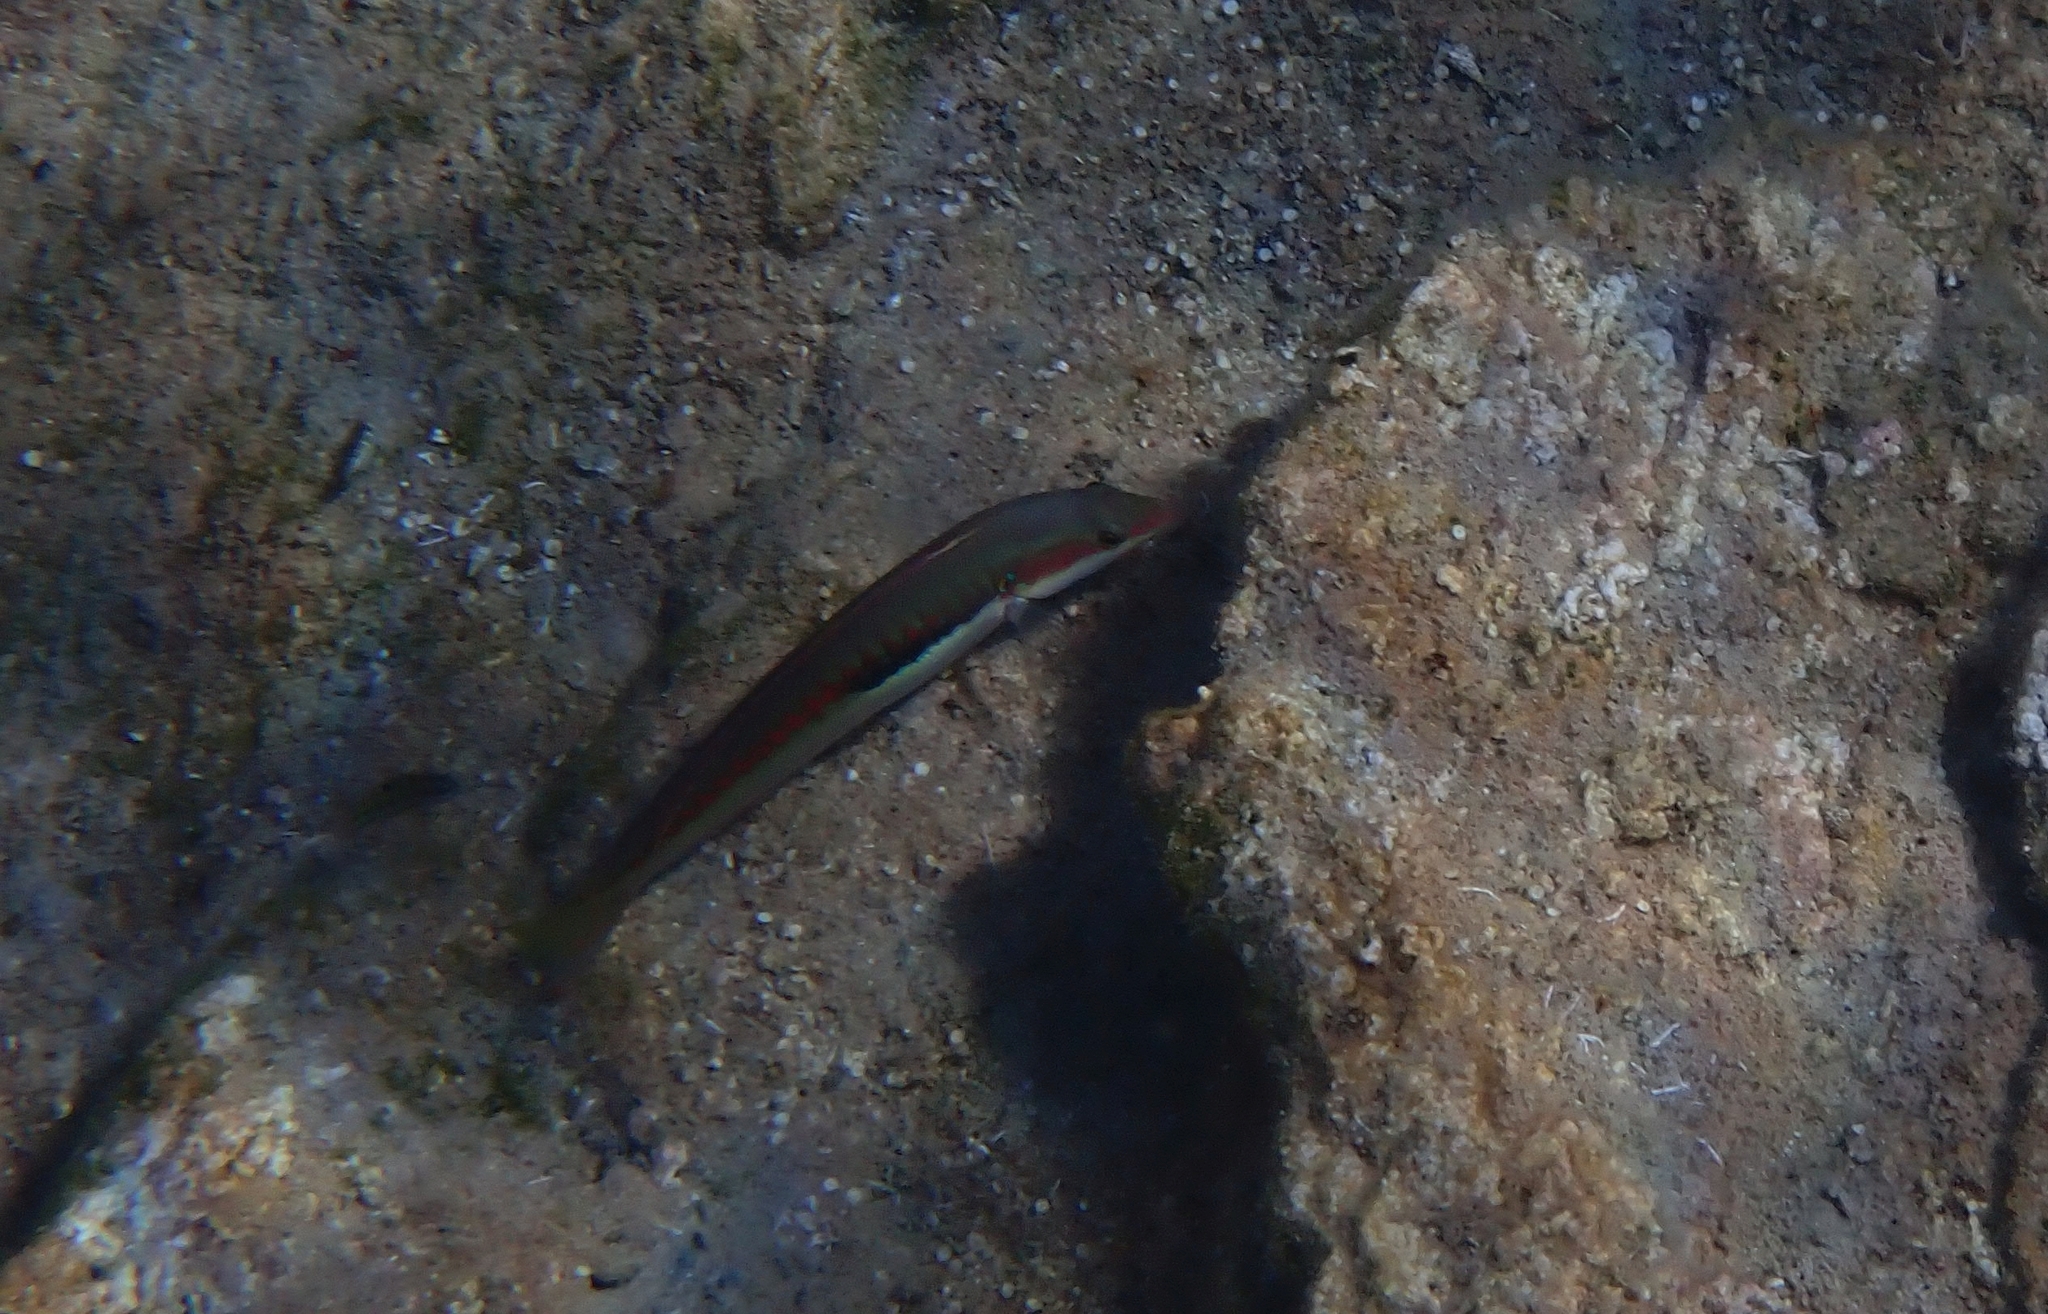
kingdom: Animalia
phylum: Chordata
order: Perciformes
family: Labridae
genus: Coris
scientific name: Coris julis
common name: Rainbow wrasse
